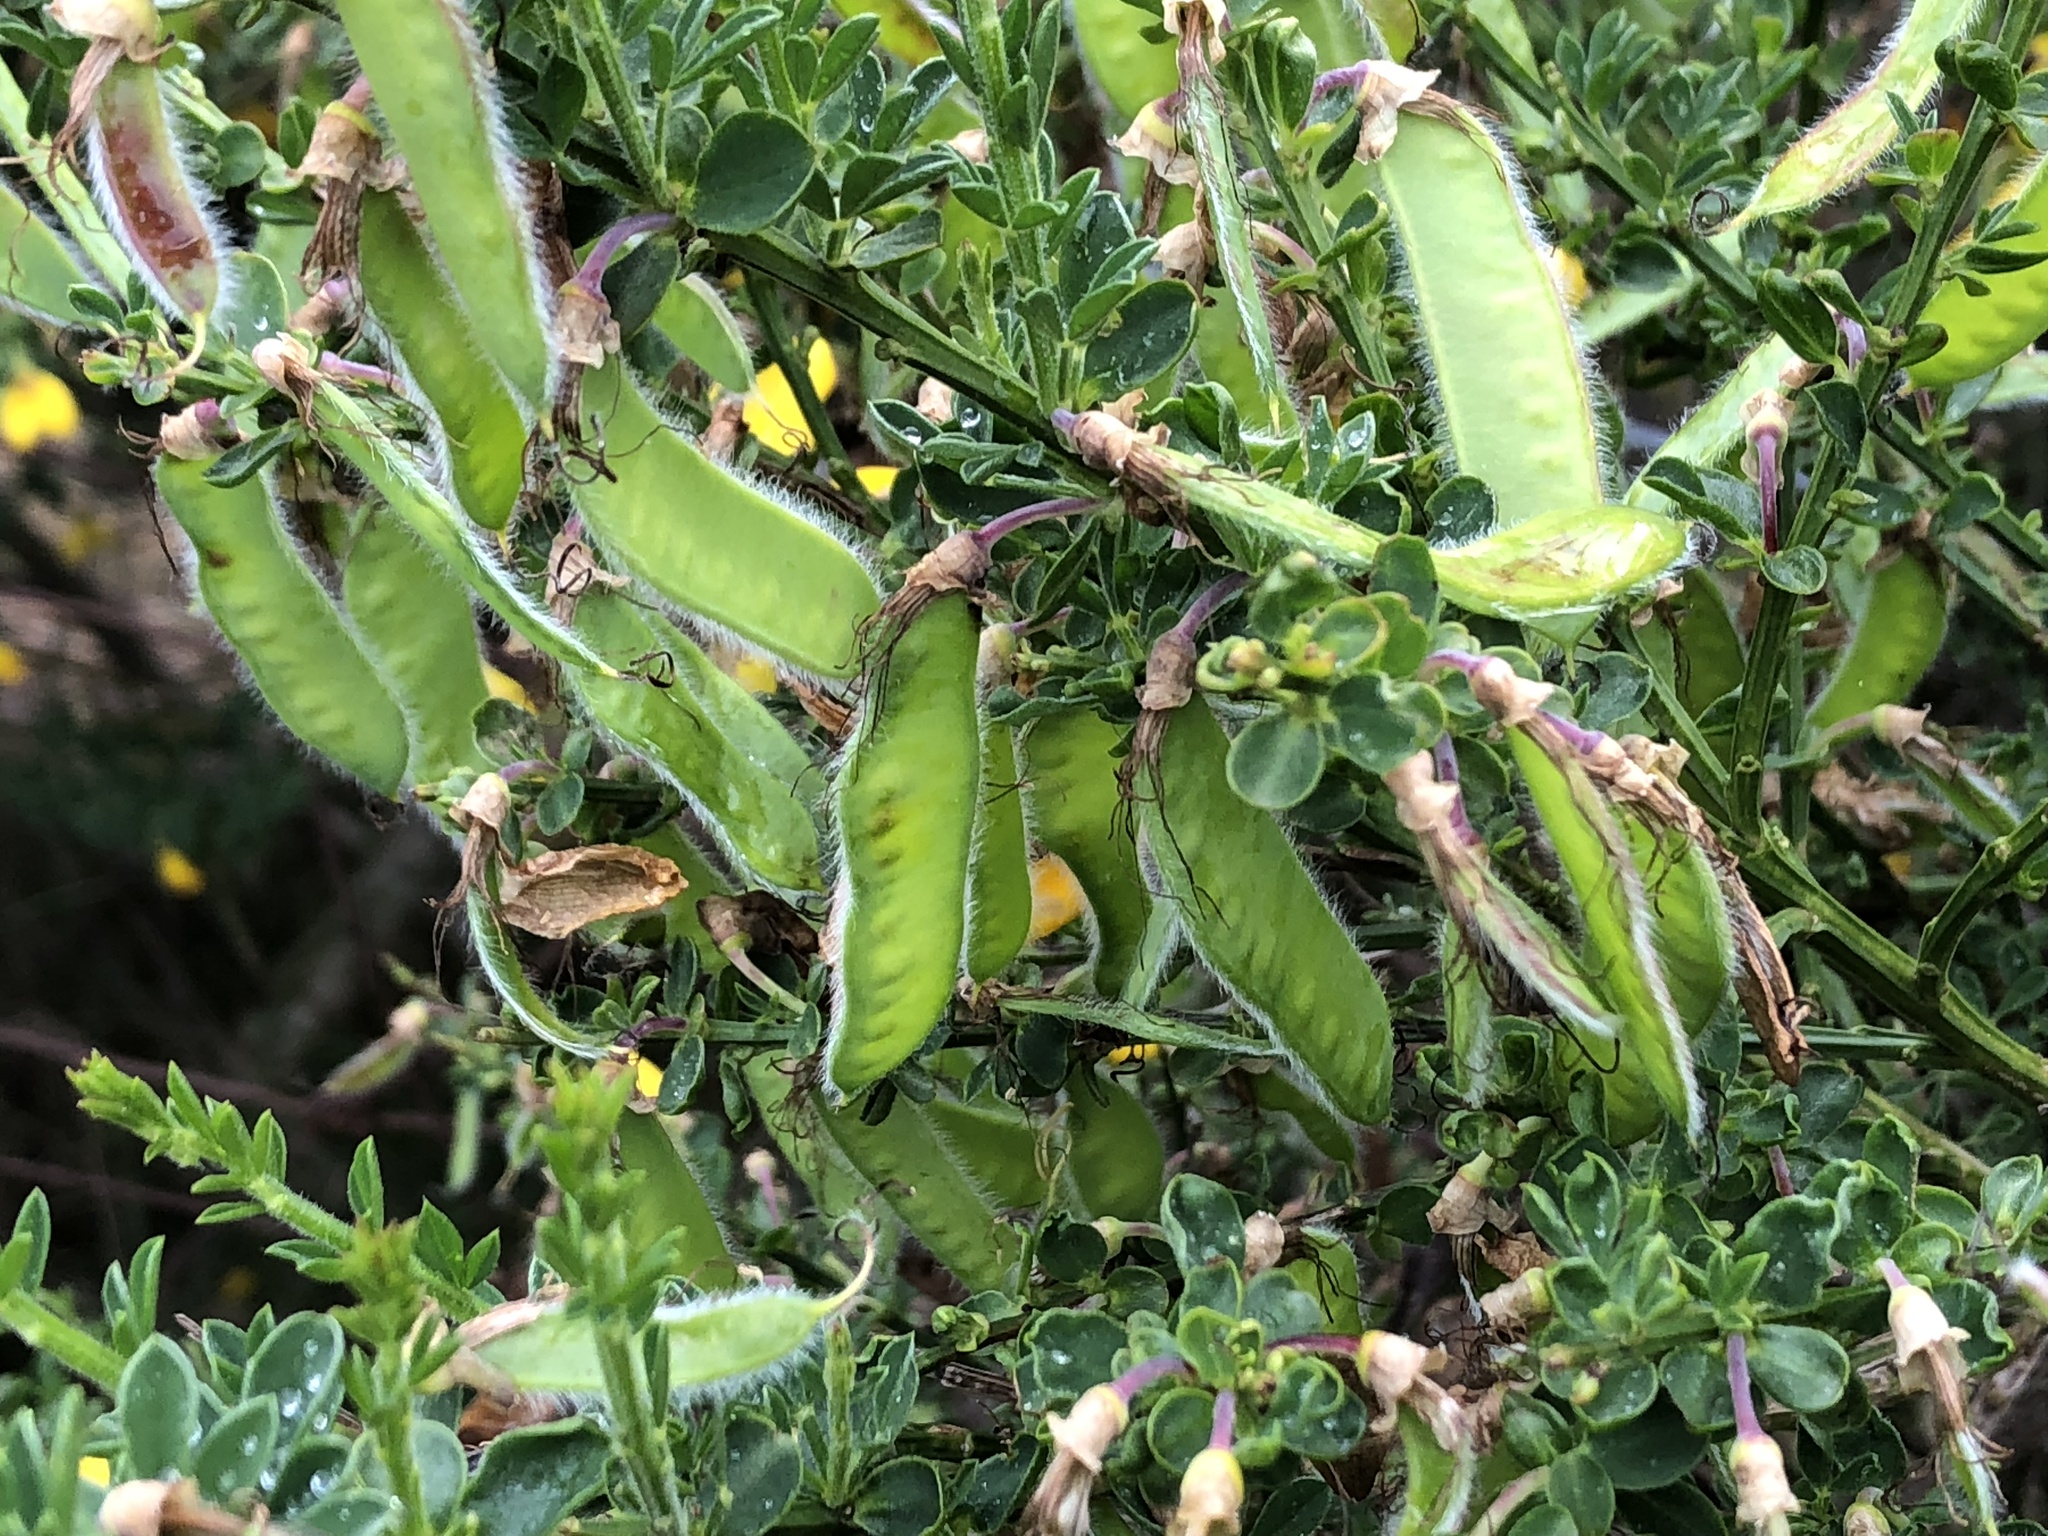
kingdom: Plantae
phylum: Tracheophyta
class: Magnoliopsida
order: Fabales
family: Fabaceae
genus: Cytisus
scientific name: Cytisus scoparius
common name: Scotch broom
